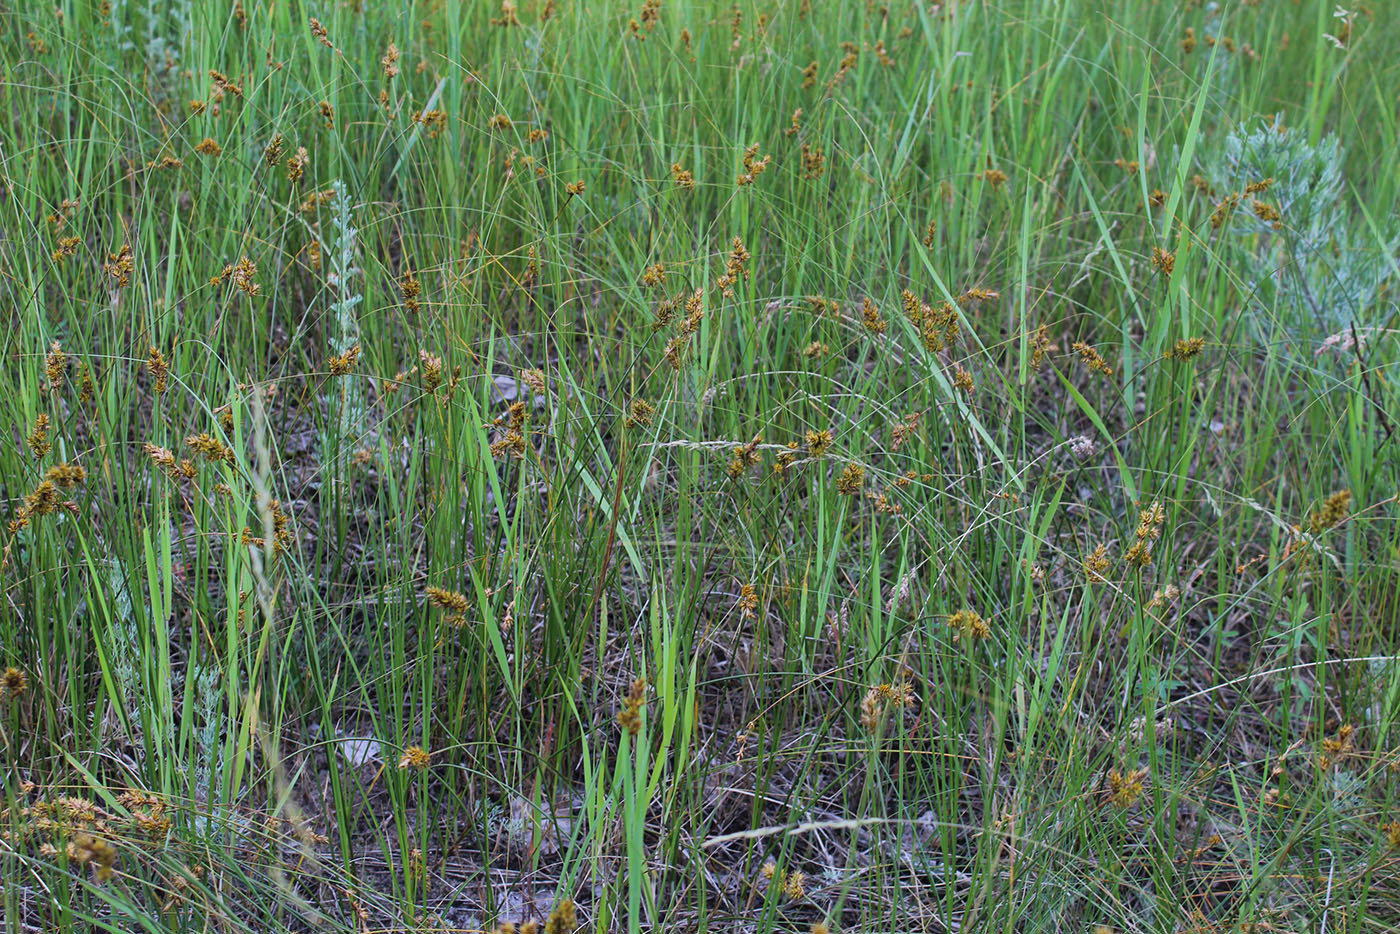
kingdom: Plantae
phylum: Tracheophyta
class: Liliopsida
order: Poales
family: Cyperaceae
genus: Carex
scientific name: Carex colchica
